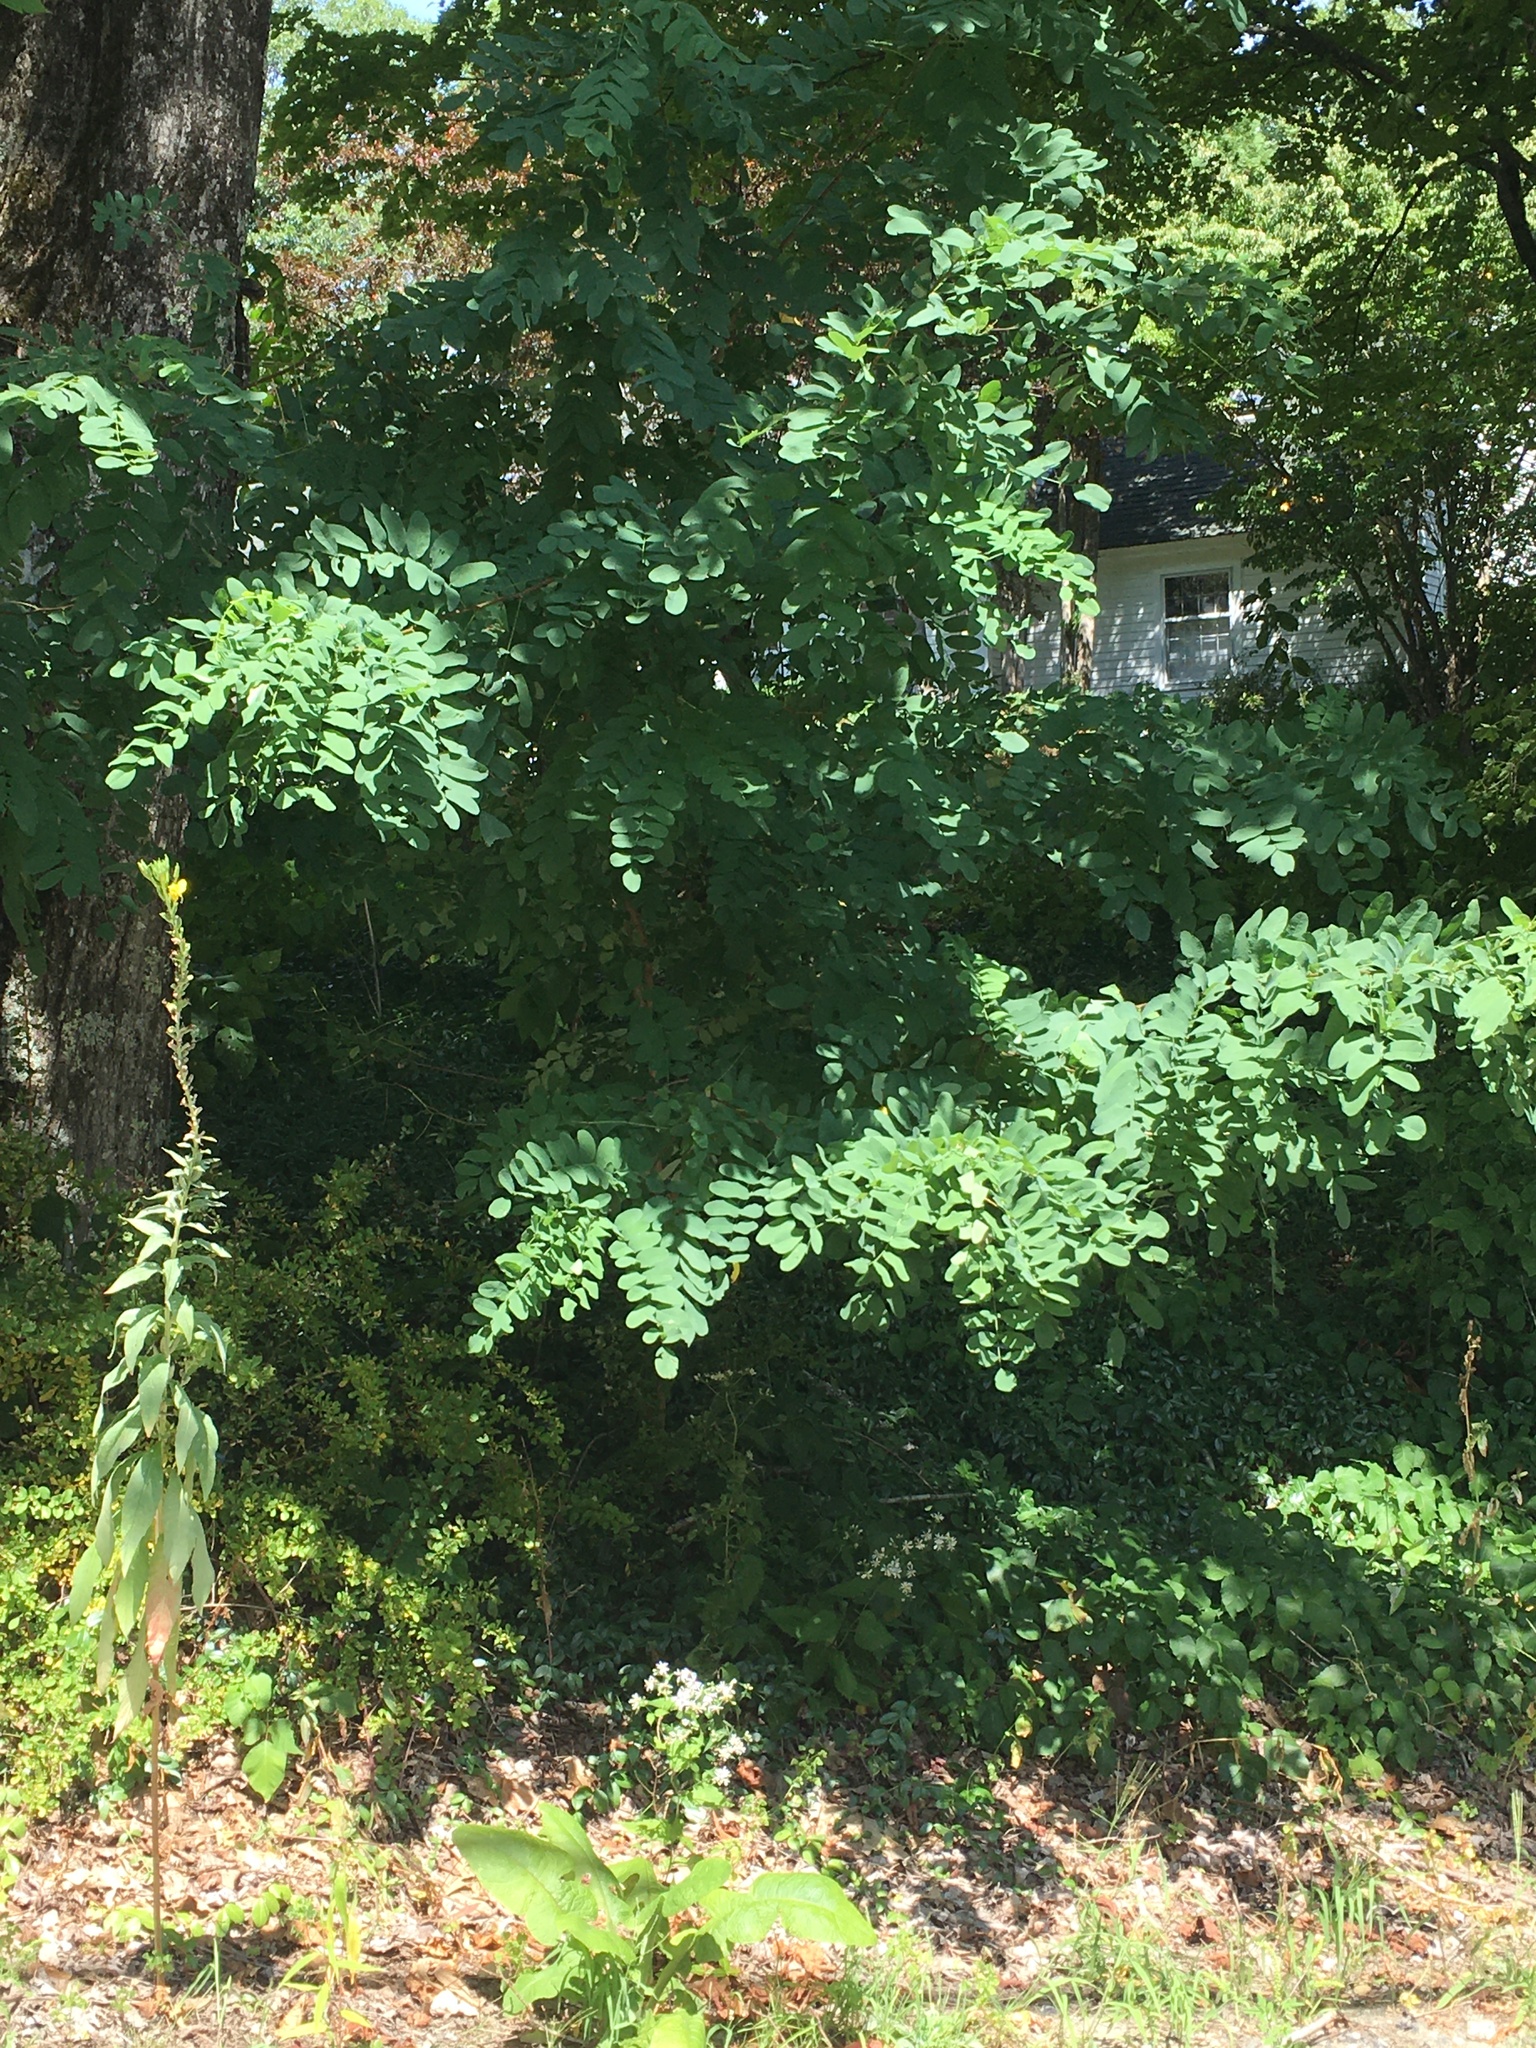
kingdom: Plantae
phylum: Tracheophyta
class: Magnoliopsida
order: Fabales
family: Fabaceae
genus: Robinia
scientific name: Robinia pseudoacacia
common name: Black locust
